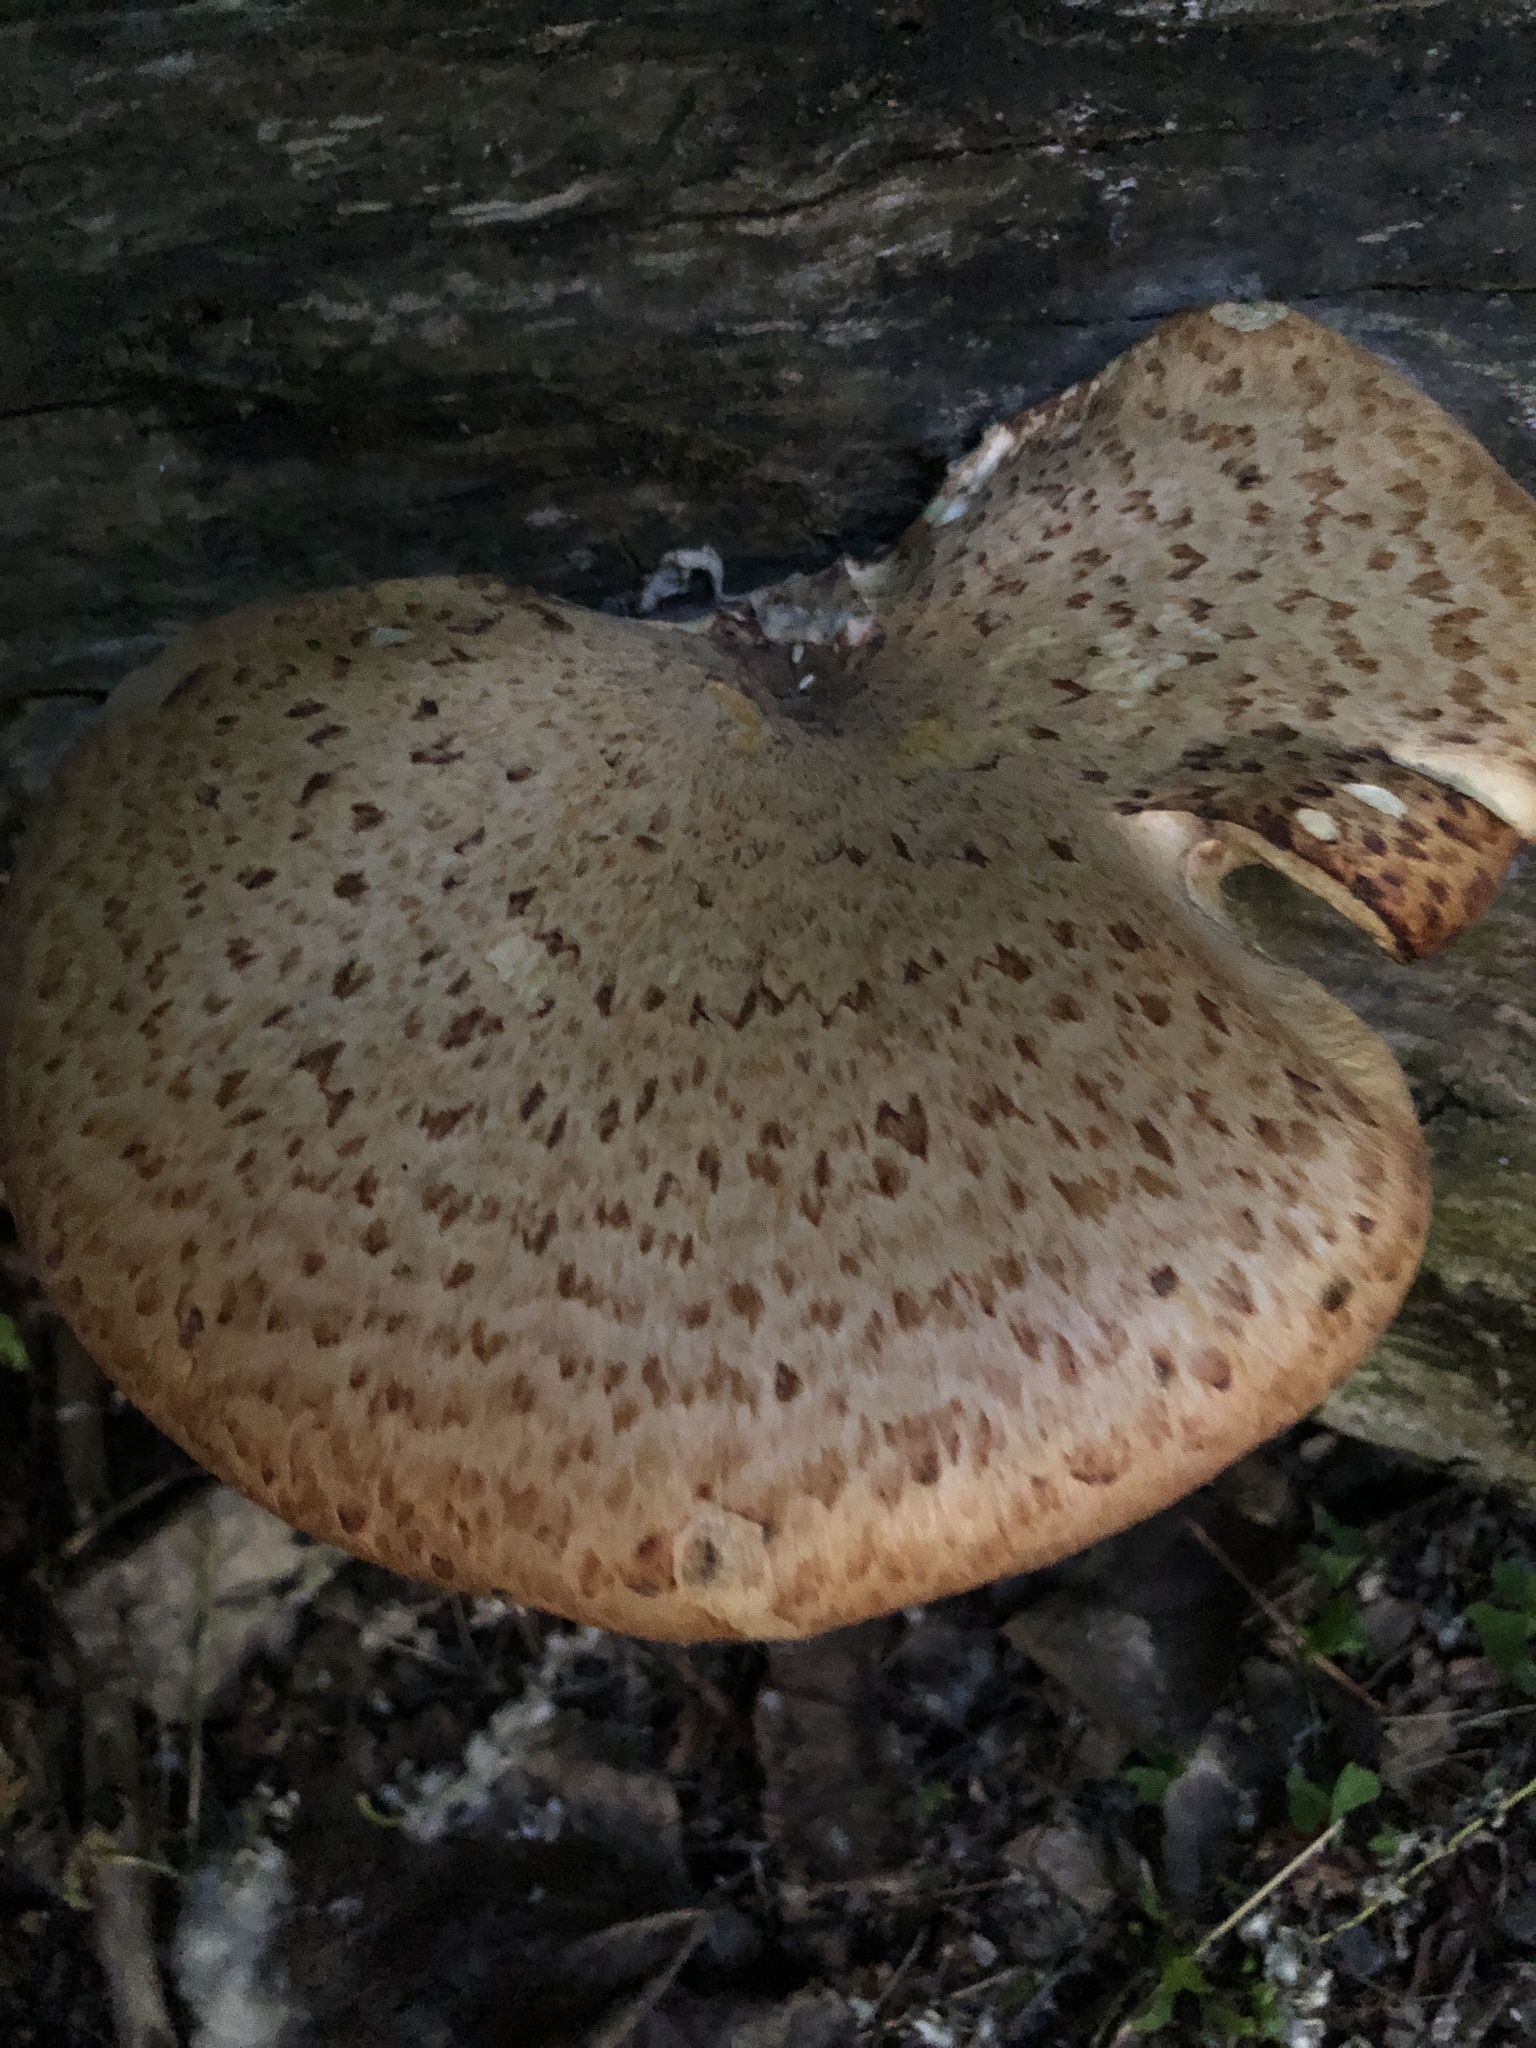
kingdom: Fungi
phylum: Basidiomycota
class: Agaricomycetes
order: Polyporales
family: Polyporaceae
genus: Cerioporus
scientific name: Cerioporus squamosus
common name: Dryad's saddle
